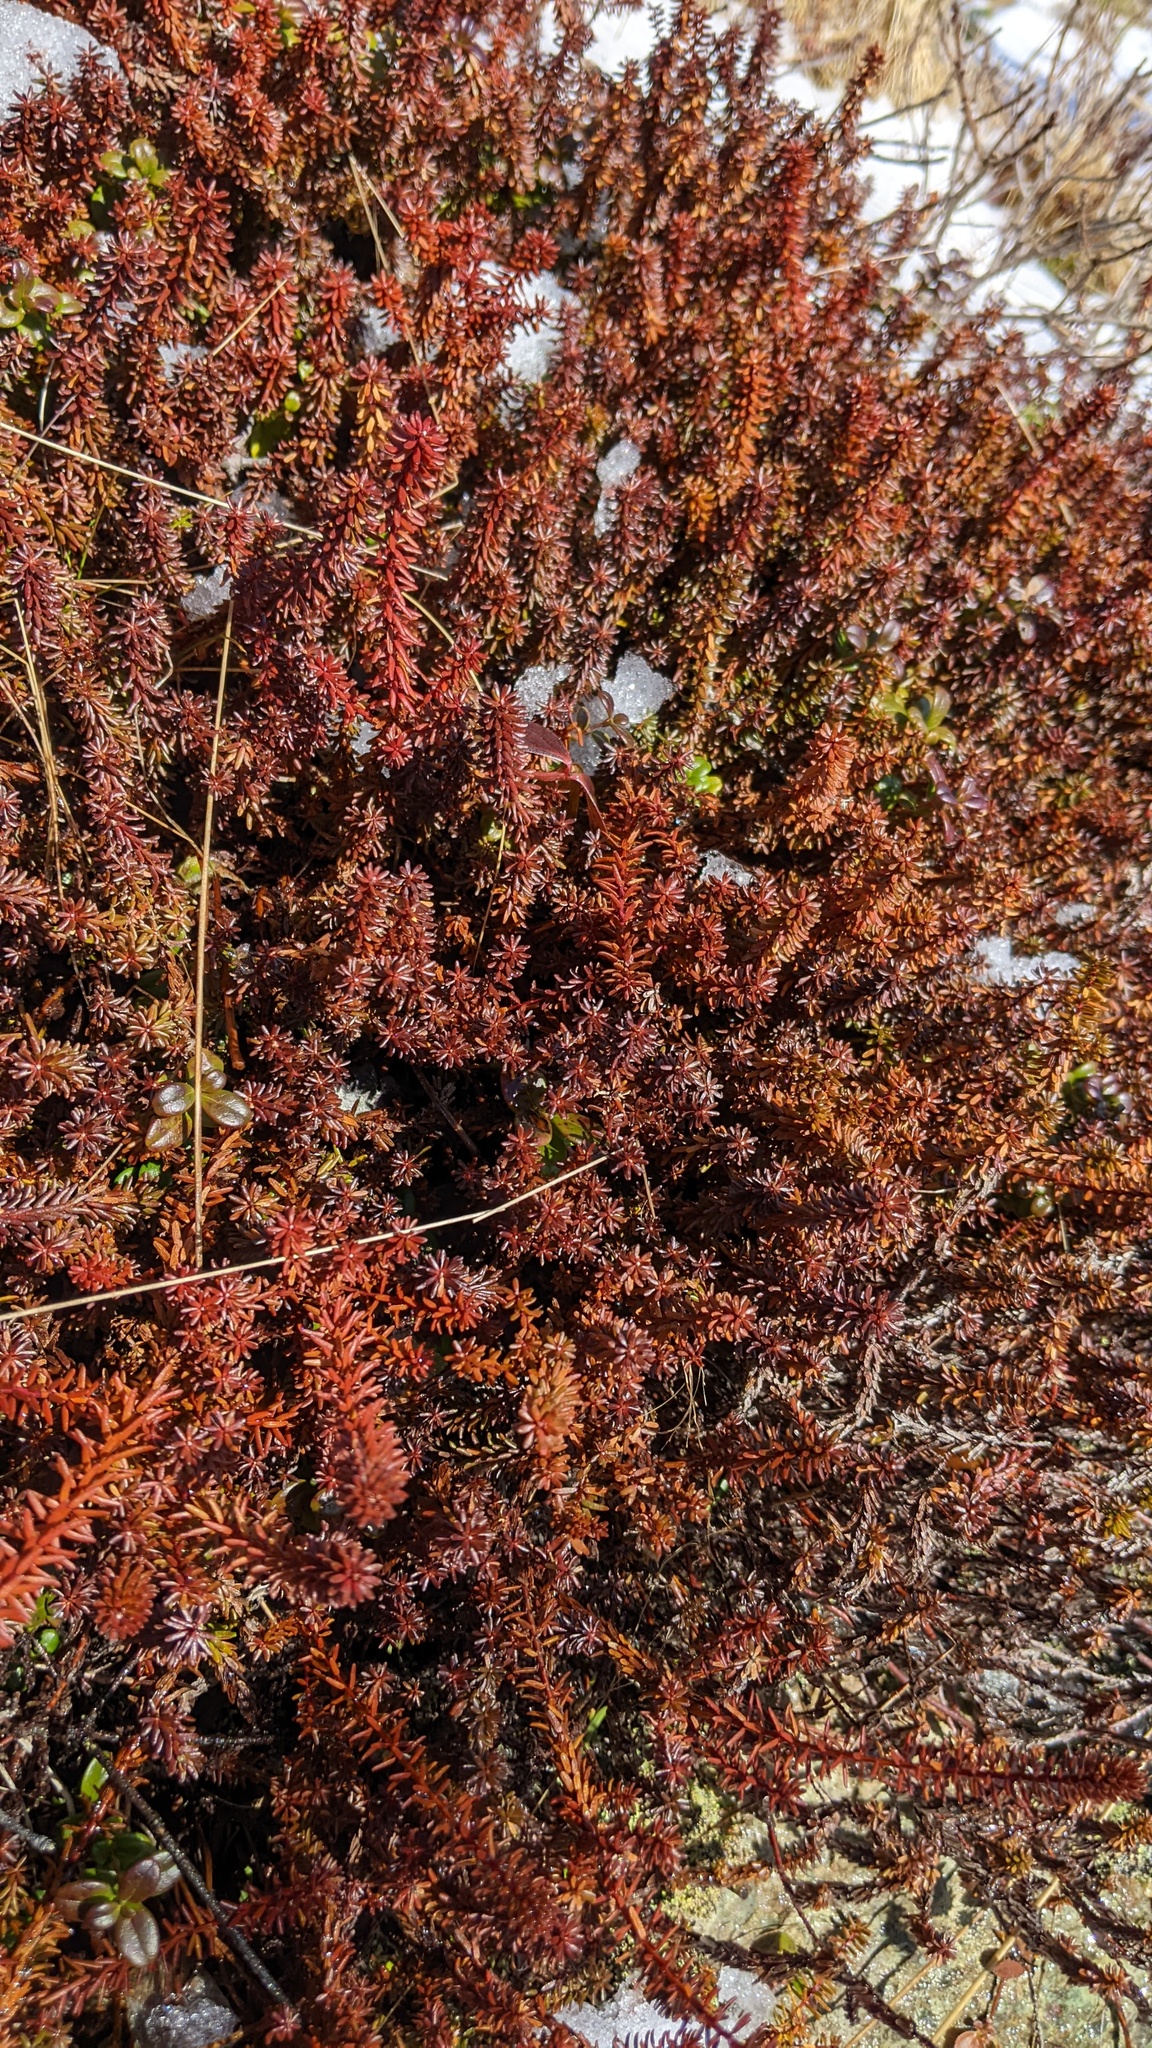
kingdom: Plantae
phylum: Tracheophyta
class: Magnoliopsida
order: Ericales
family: Ericaceae
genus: Empetrum
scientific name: Empetrum nigrum
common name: Black crowberry
